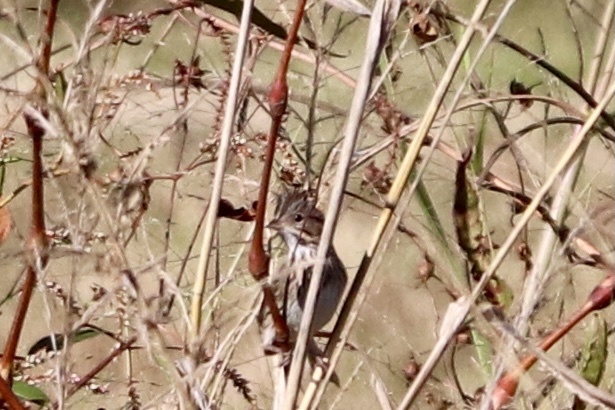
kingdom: Animalia
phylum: Chordata
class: Aves
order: Passeriformes
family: Passerellidae
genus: Melospiza
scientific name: Melospiza lincolnii
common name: Lincoln's sparrow
